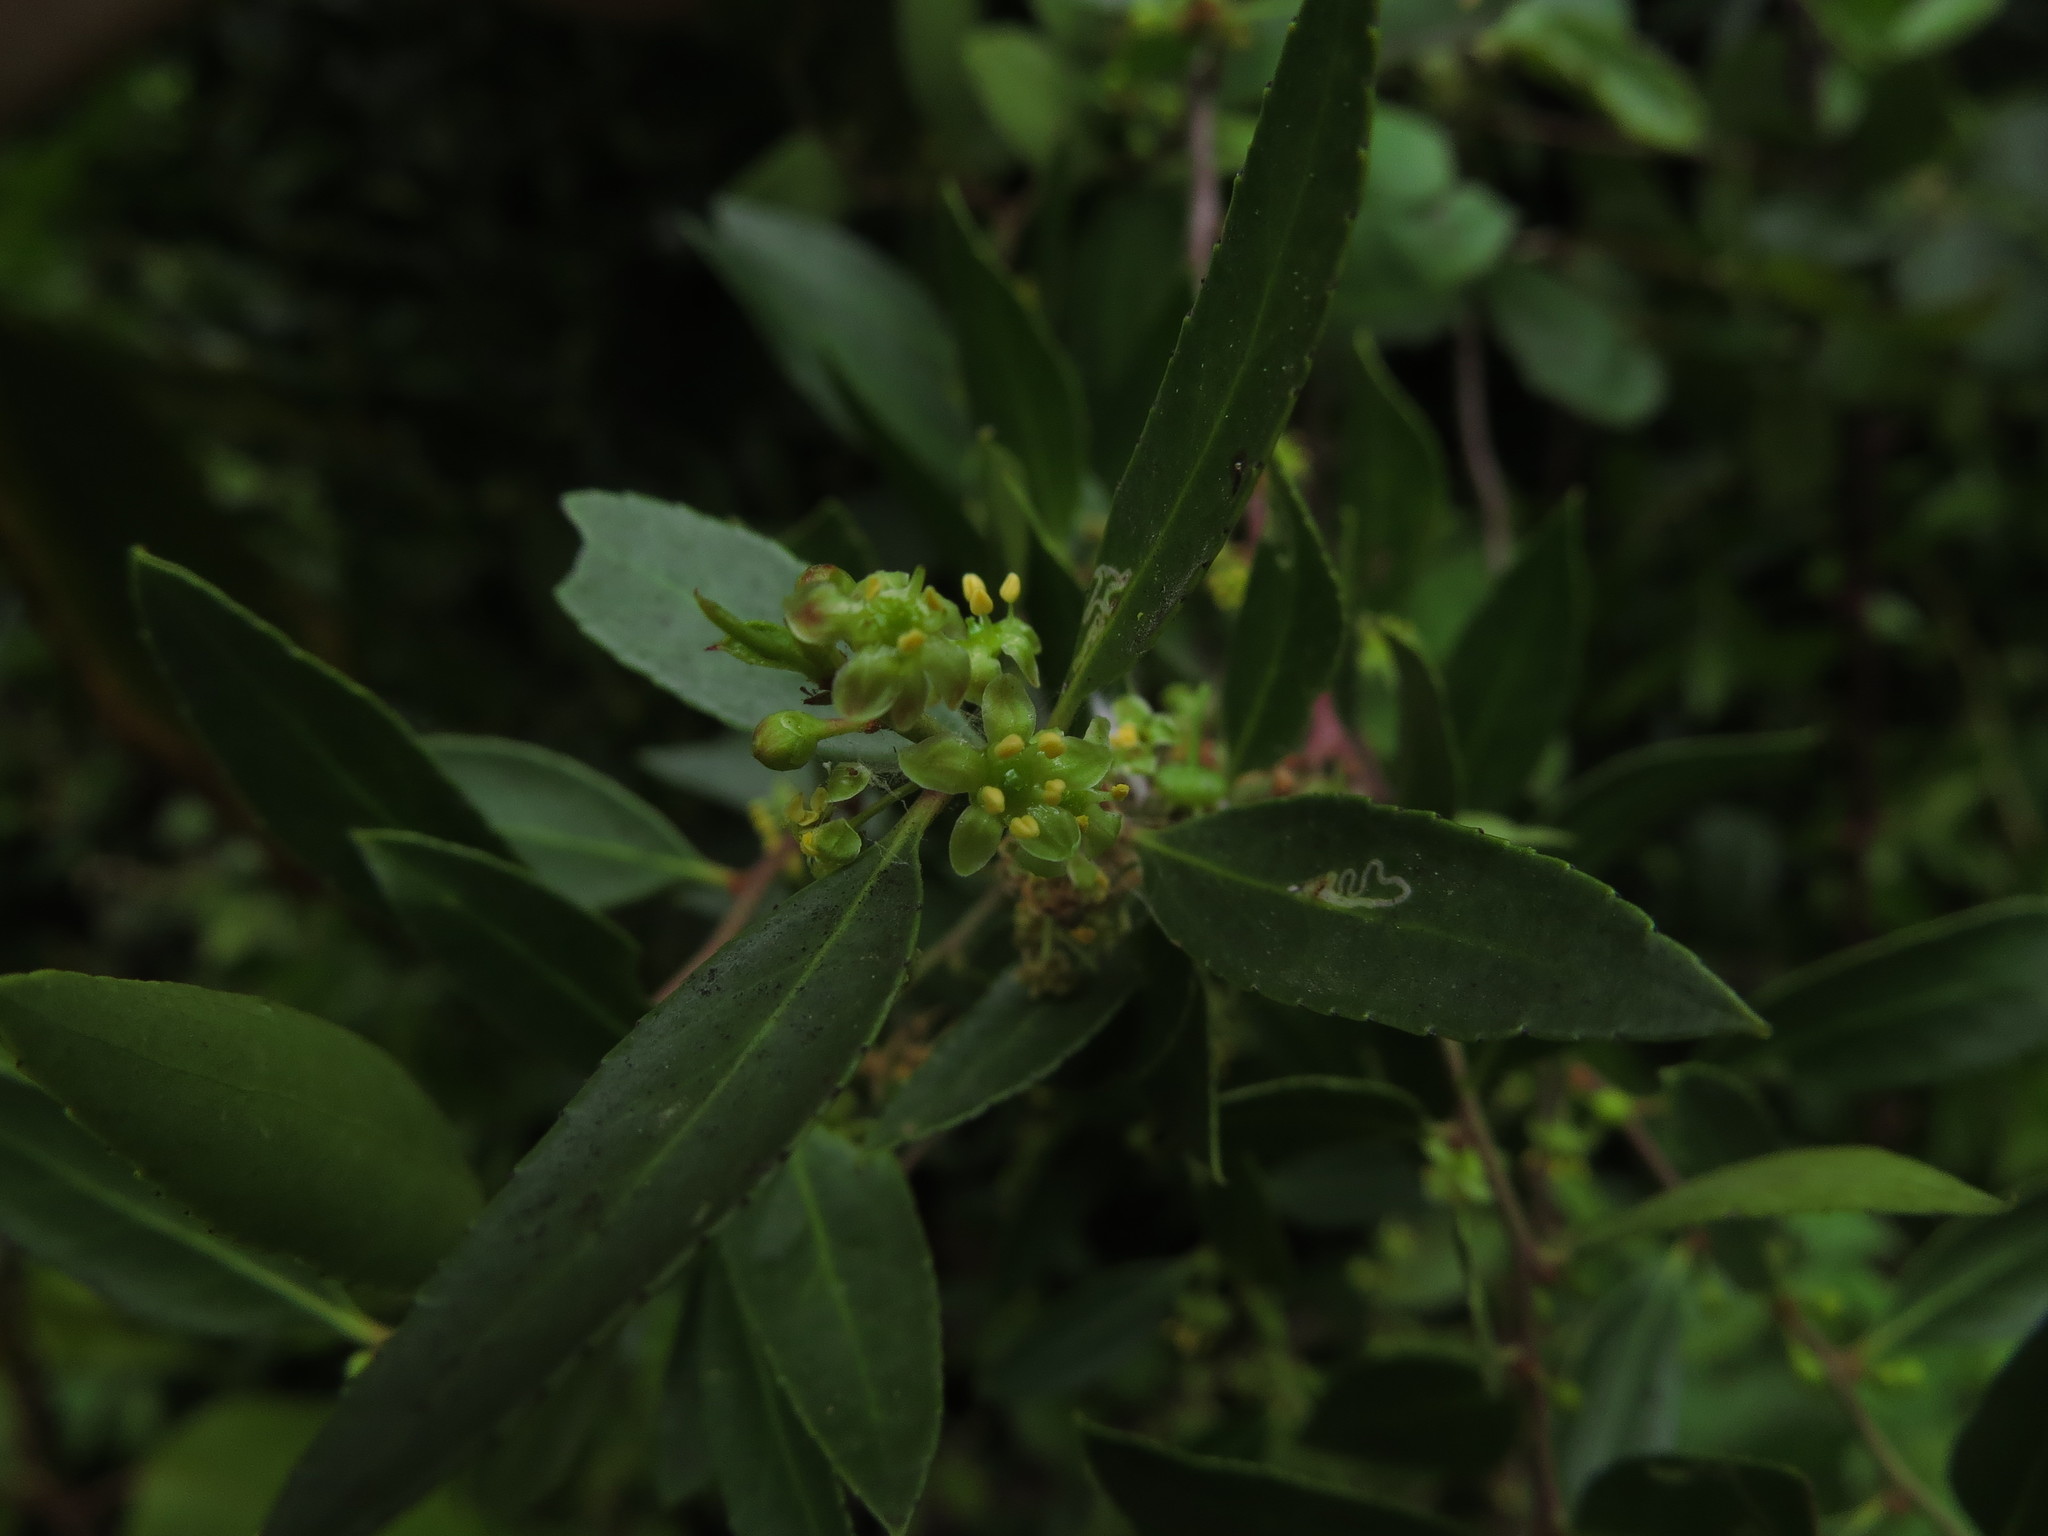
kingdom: Plantae
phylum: Tracheophyta
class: Magnoliopsida
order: Celastrales
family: Celastraceae
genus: Maytenus
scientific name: Maytenus boaria
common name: Mayten
